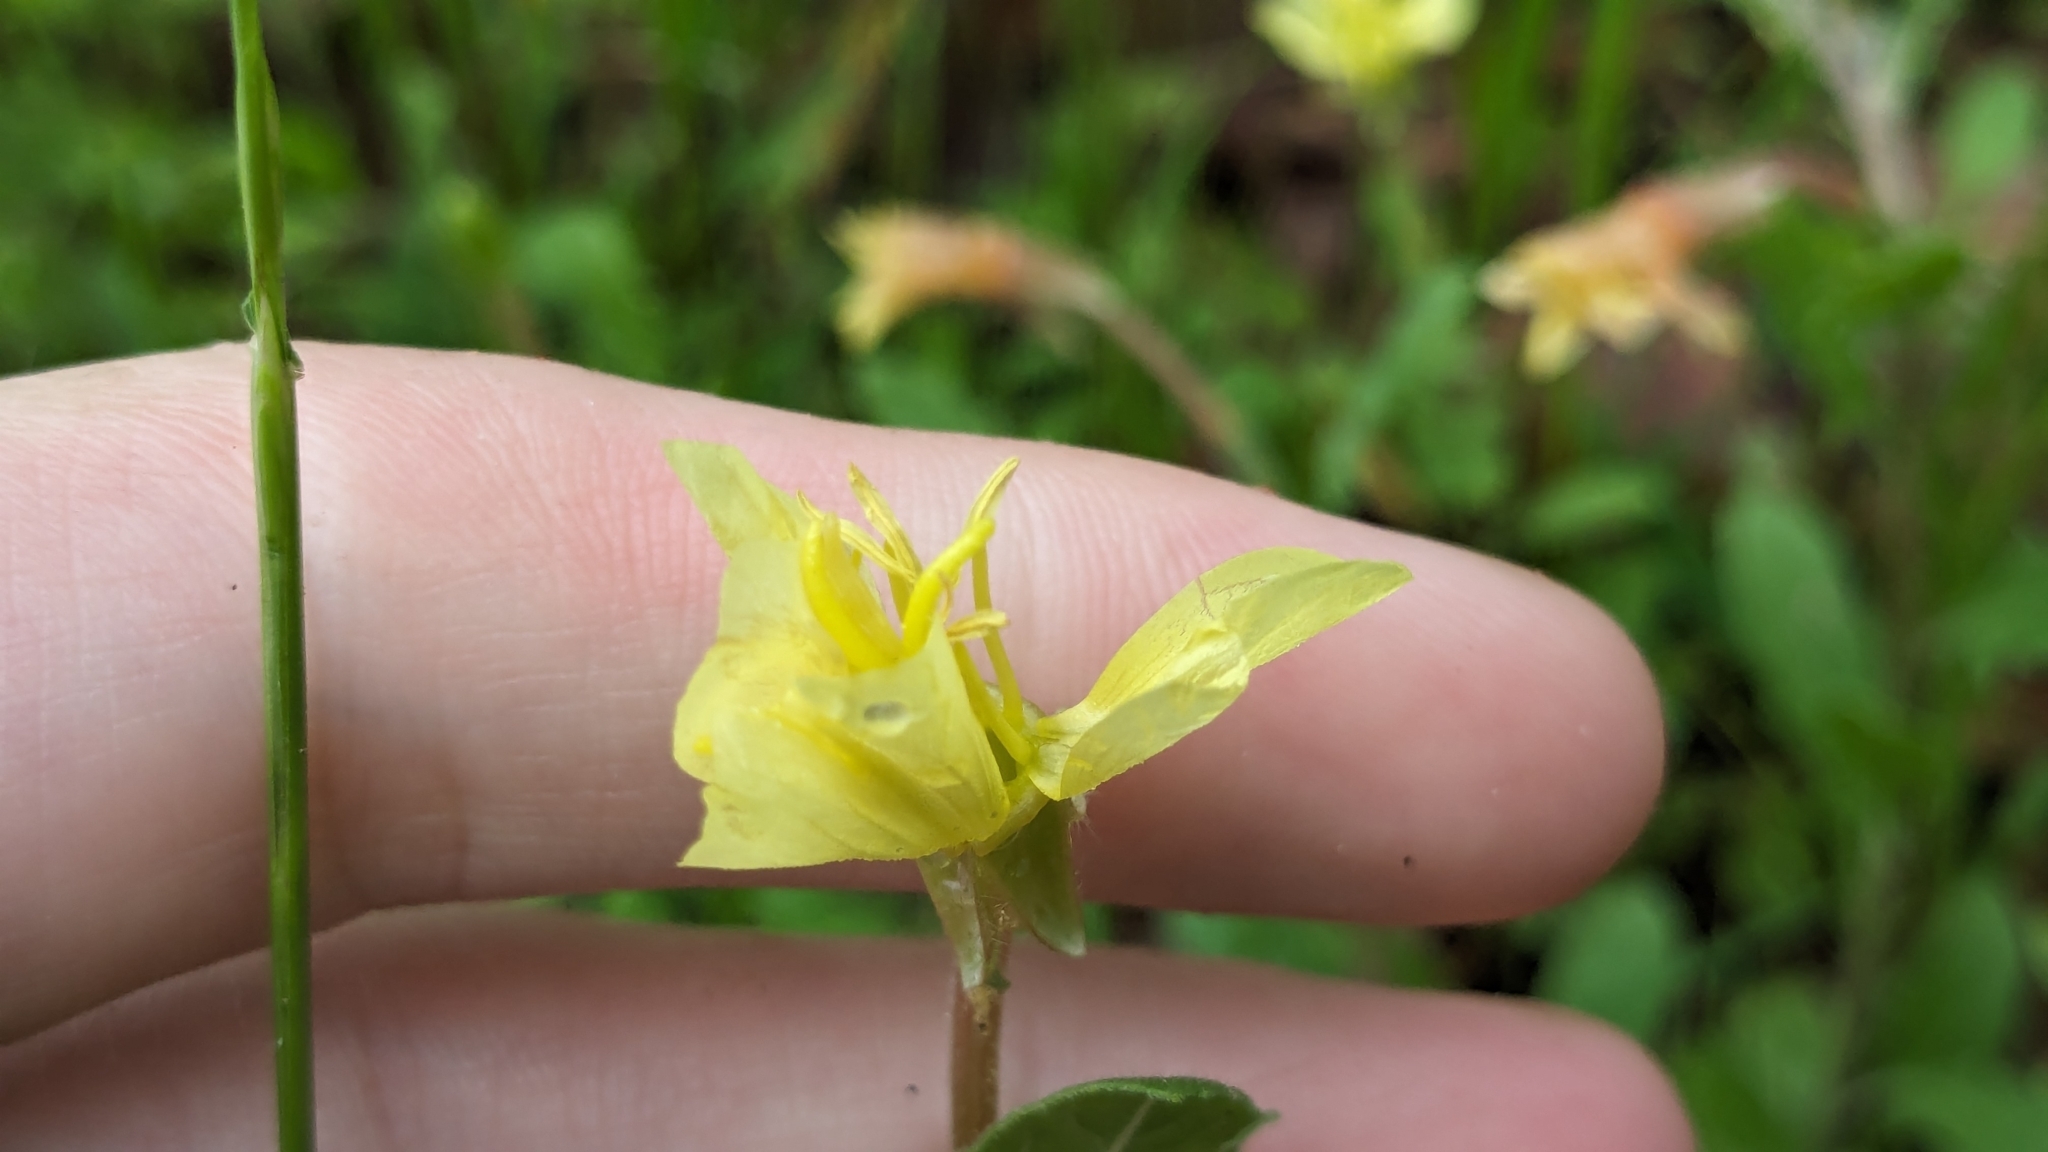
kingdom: Plantae
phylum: Tracheophyta
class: Magnoliopsida
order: Myrtales
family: Onagraceae
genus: Oenothera
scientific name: Oenothera laciniata
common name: Cut-leaved evening-primrose
